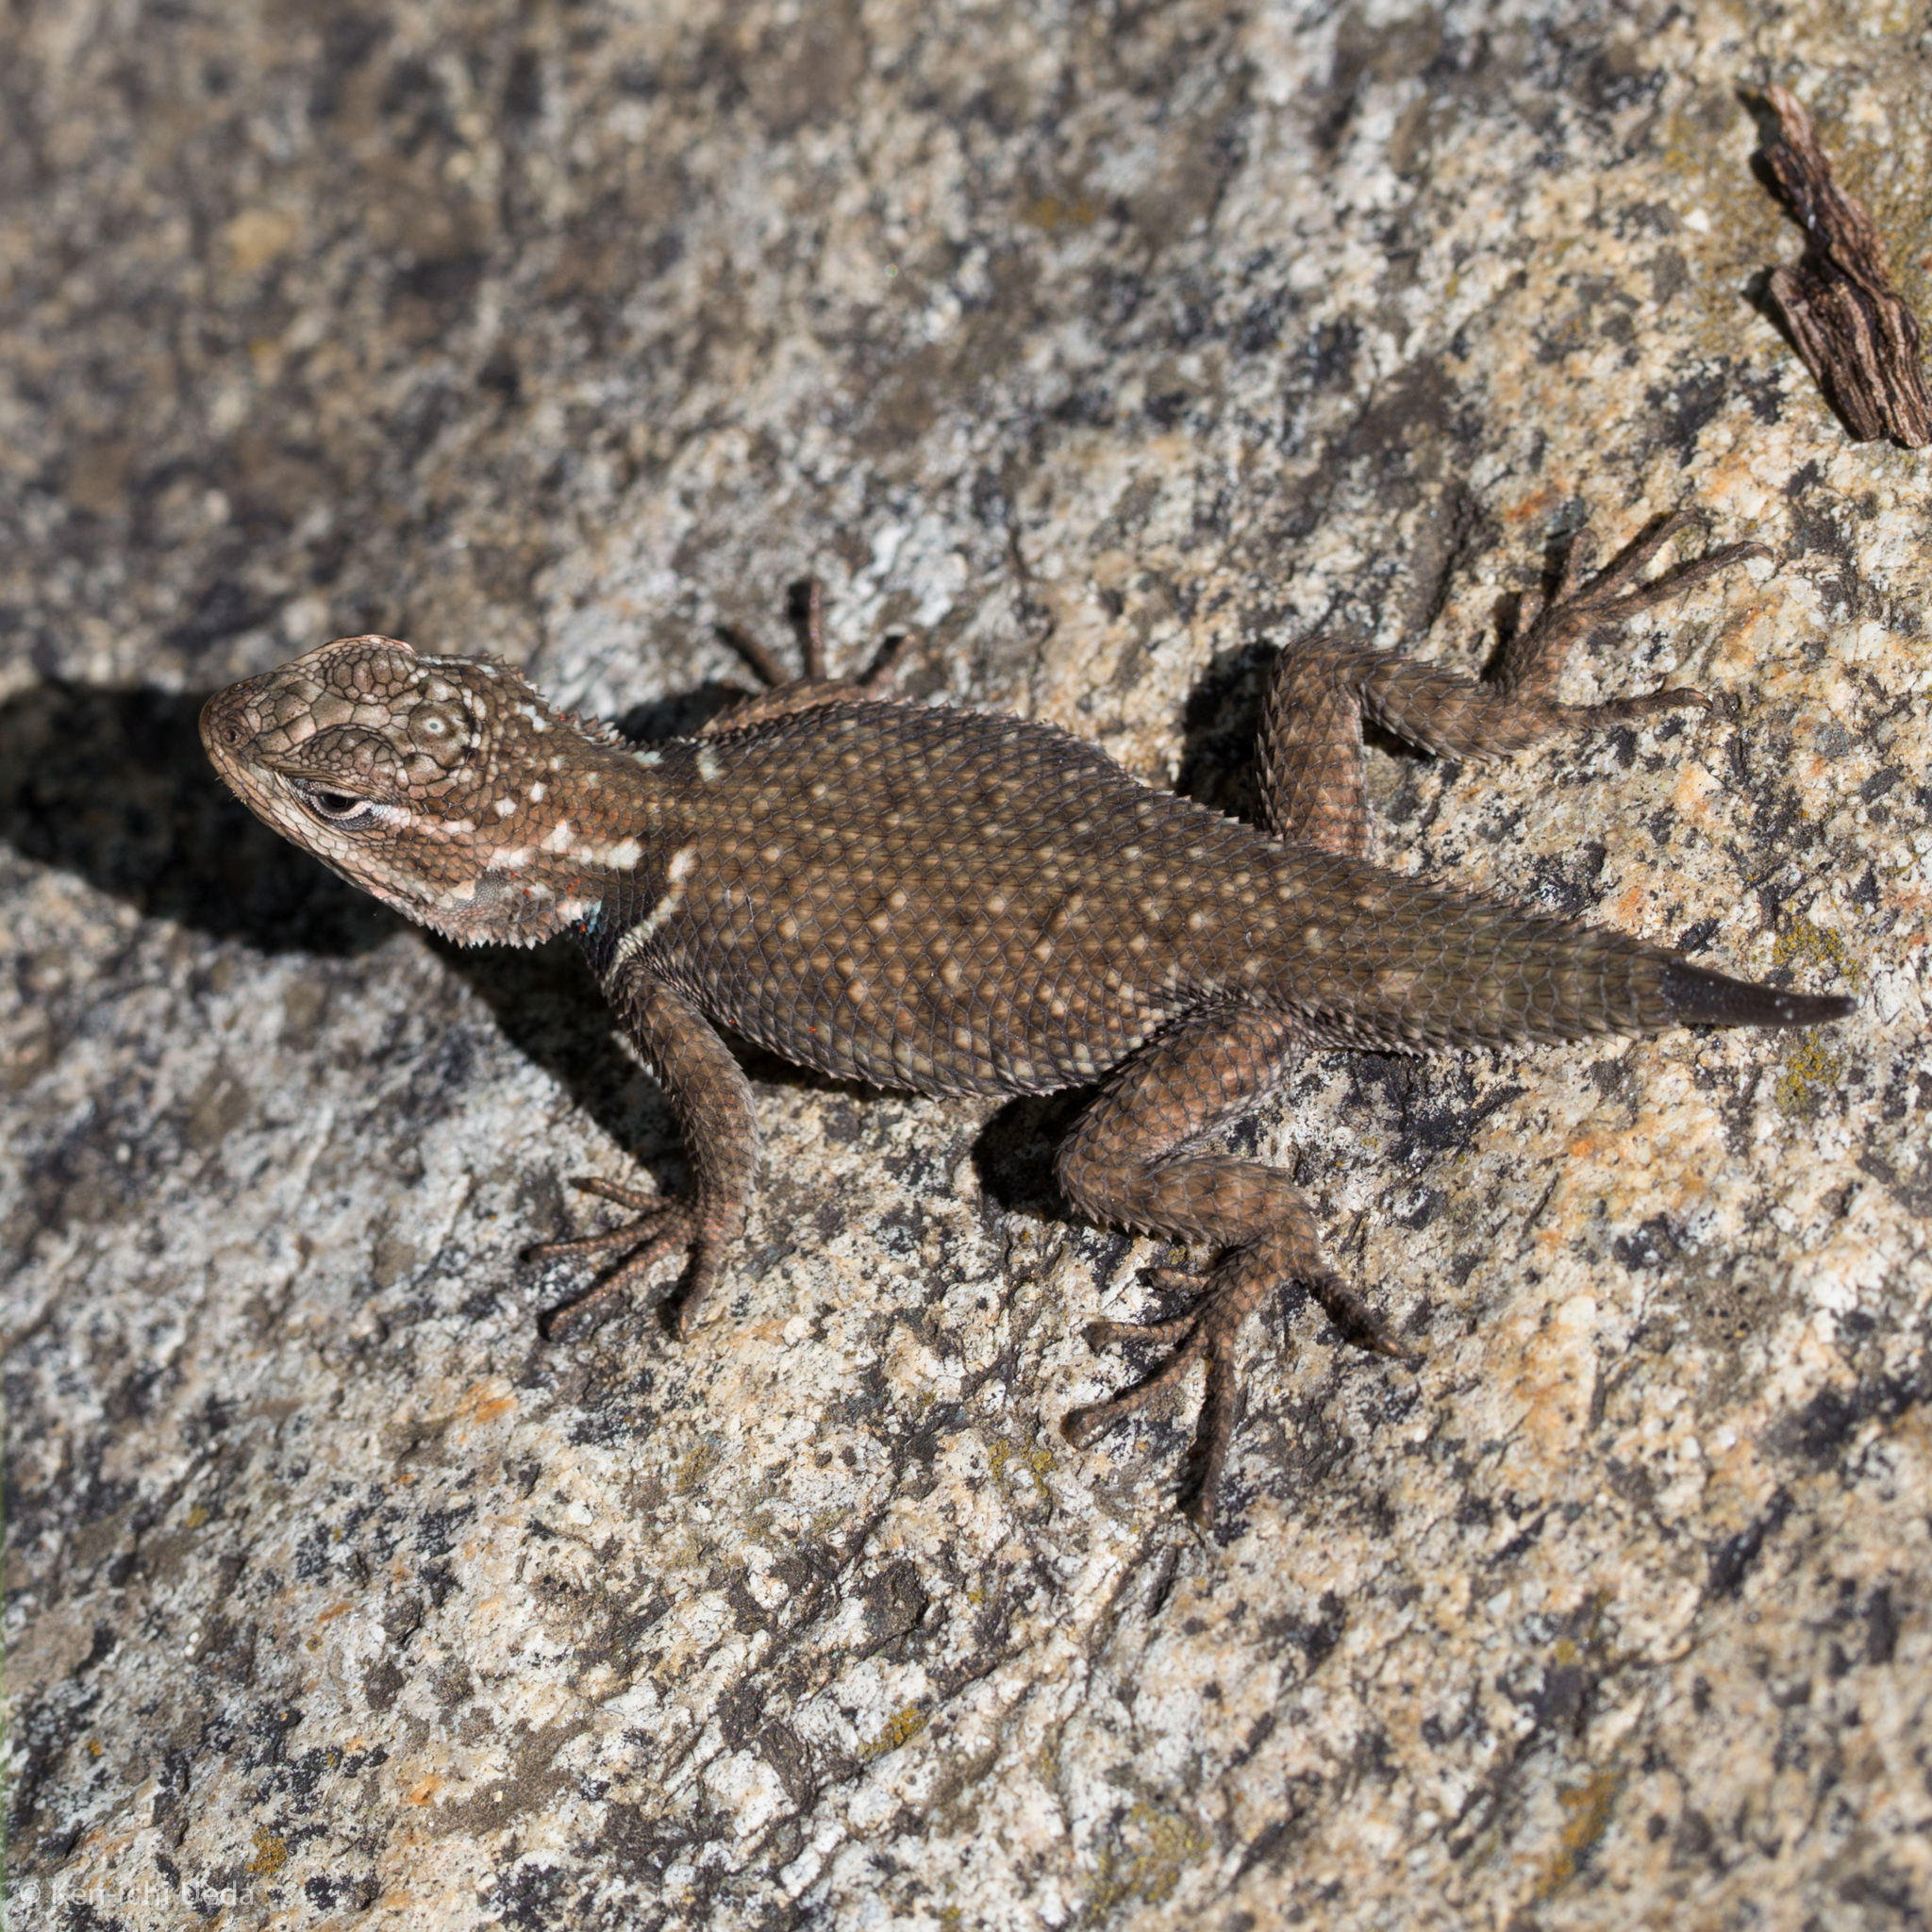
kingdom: Animalia
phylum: Chordata
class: Squamata
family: Phrynosomatidae
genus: Sceloporus
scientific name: Sceloporus jarrovii
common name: Yarrow's spiny lizard
